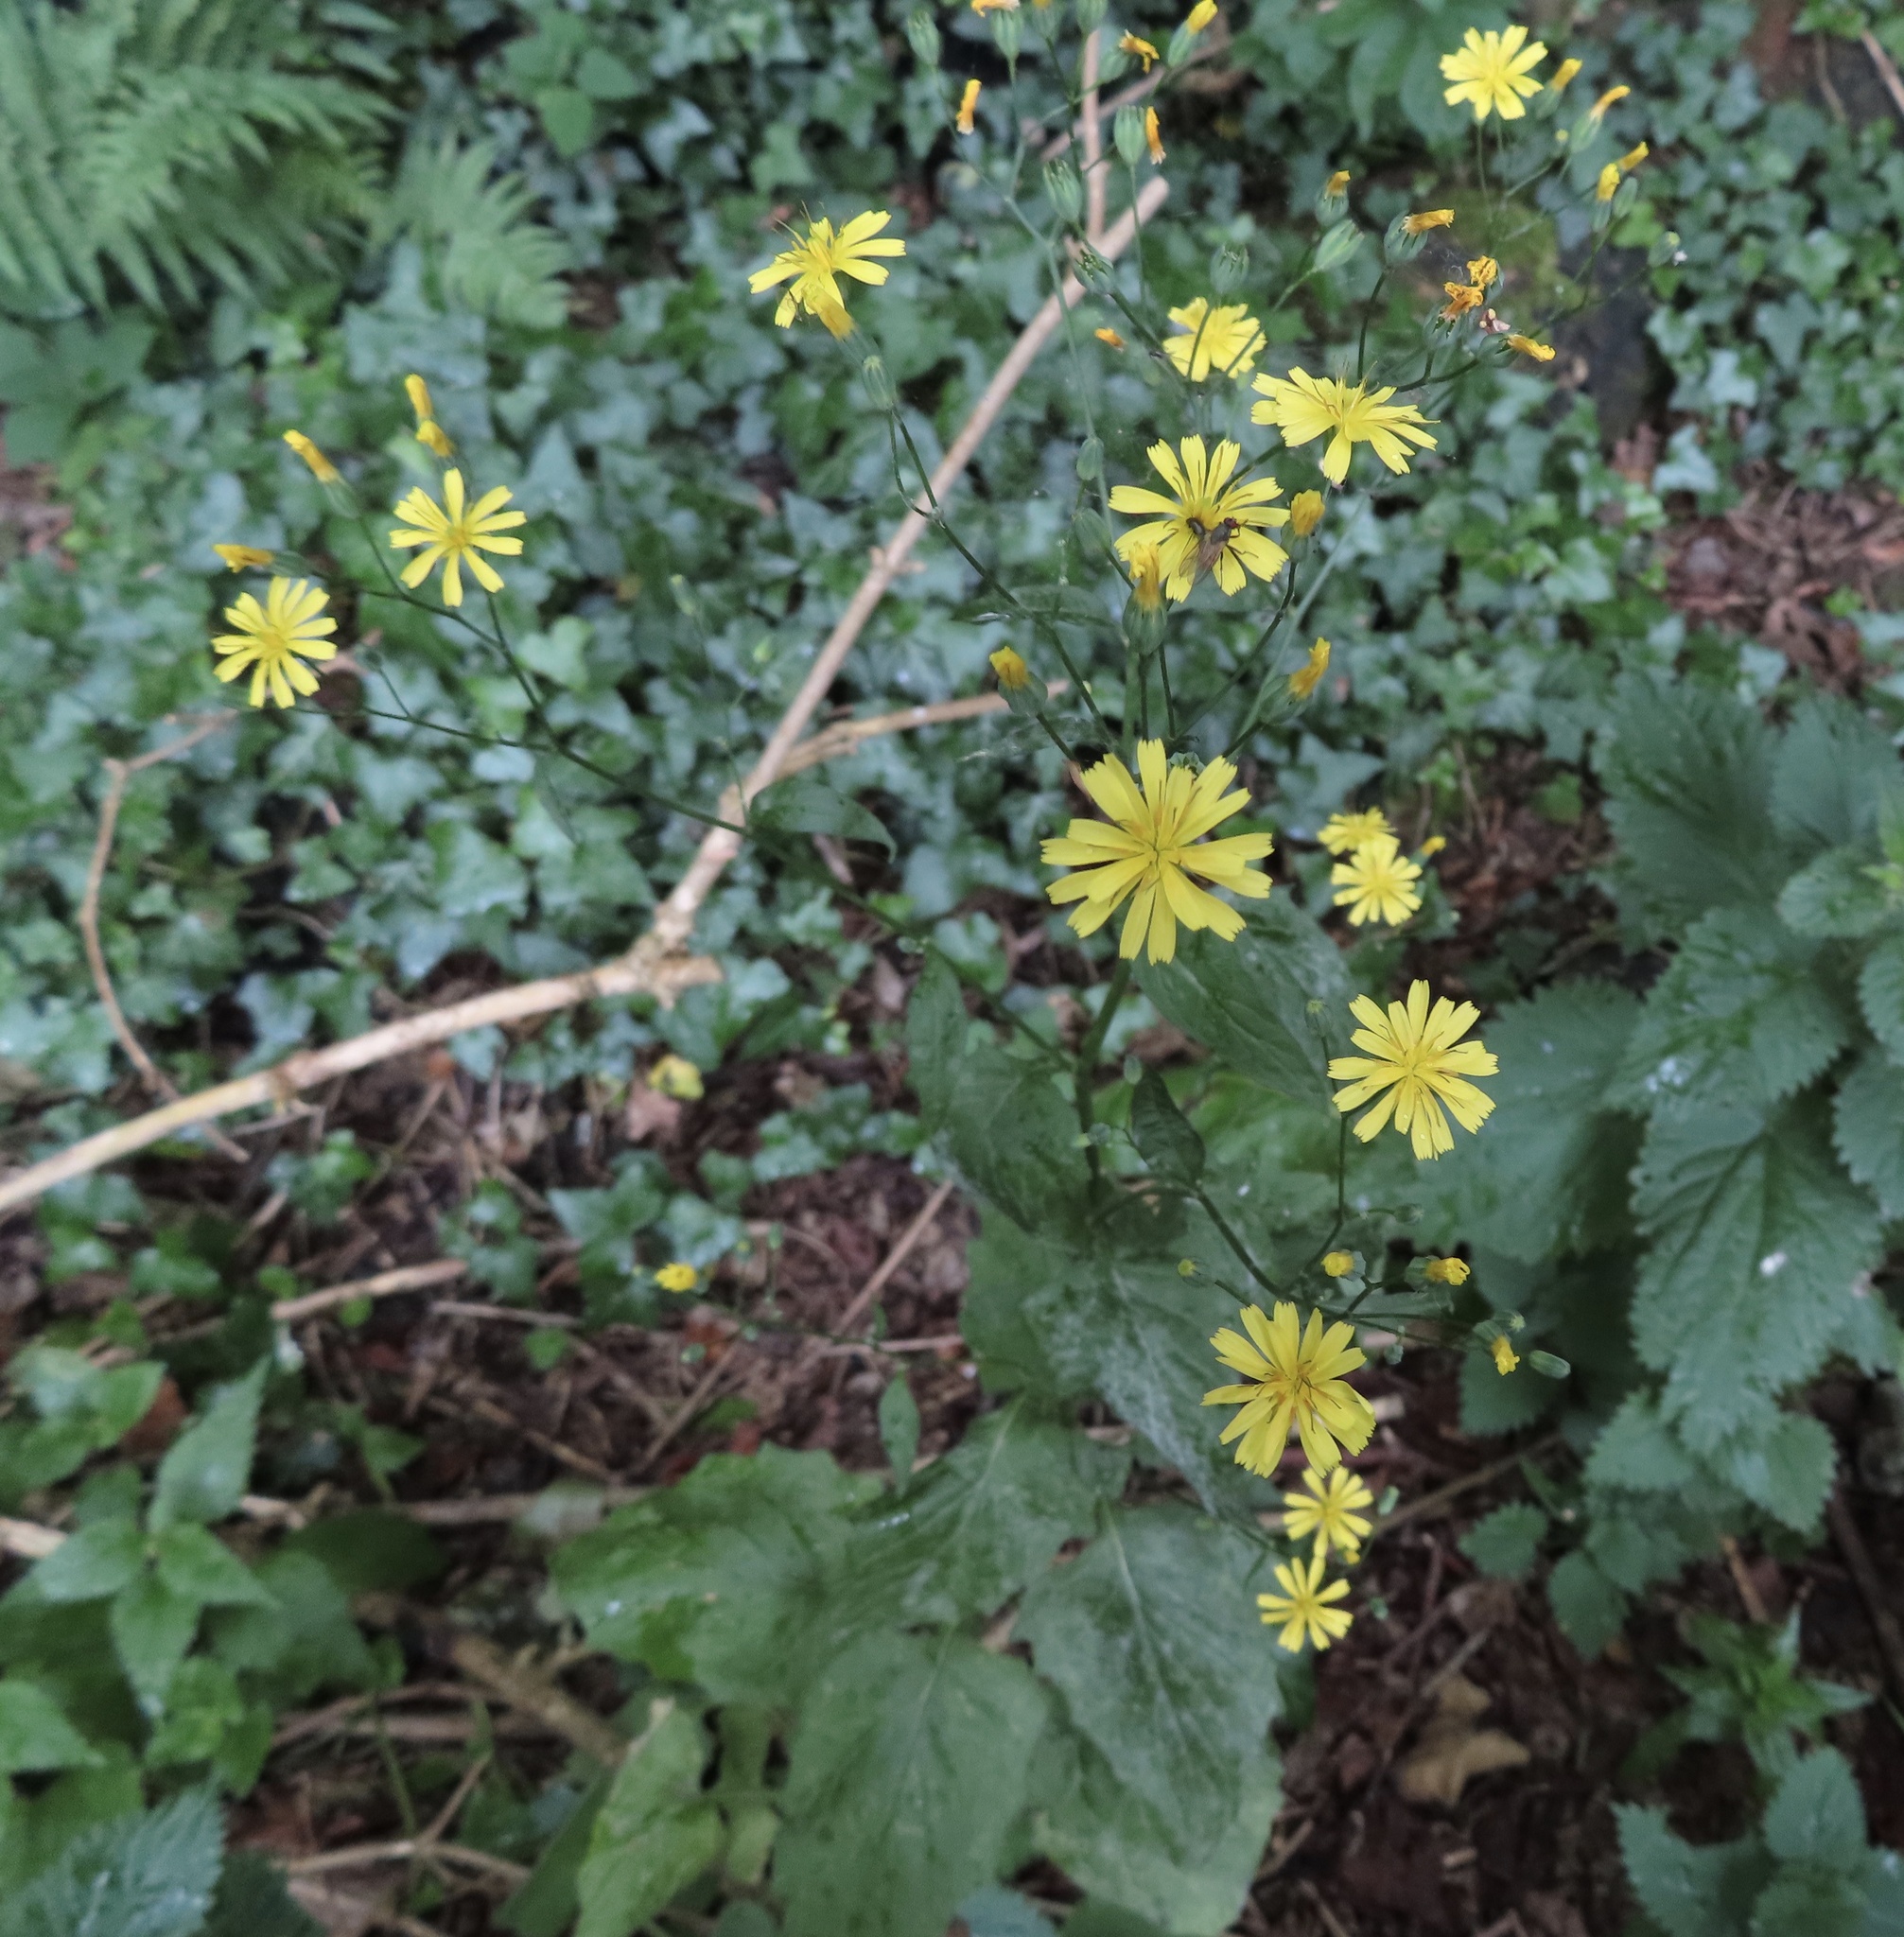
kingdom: Plantae
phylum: Tracheophyta
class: Magnoliopsida
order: Asterales
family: Asteraceae
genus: Lapsana
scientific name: Lapsana communis
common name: Nipplewort
